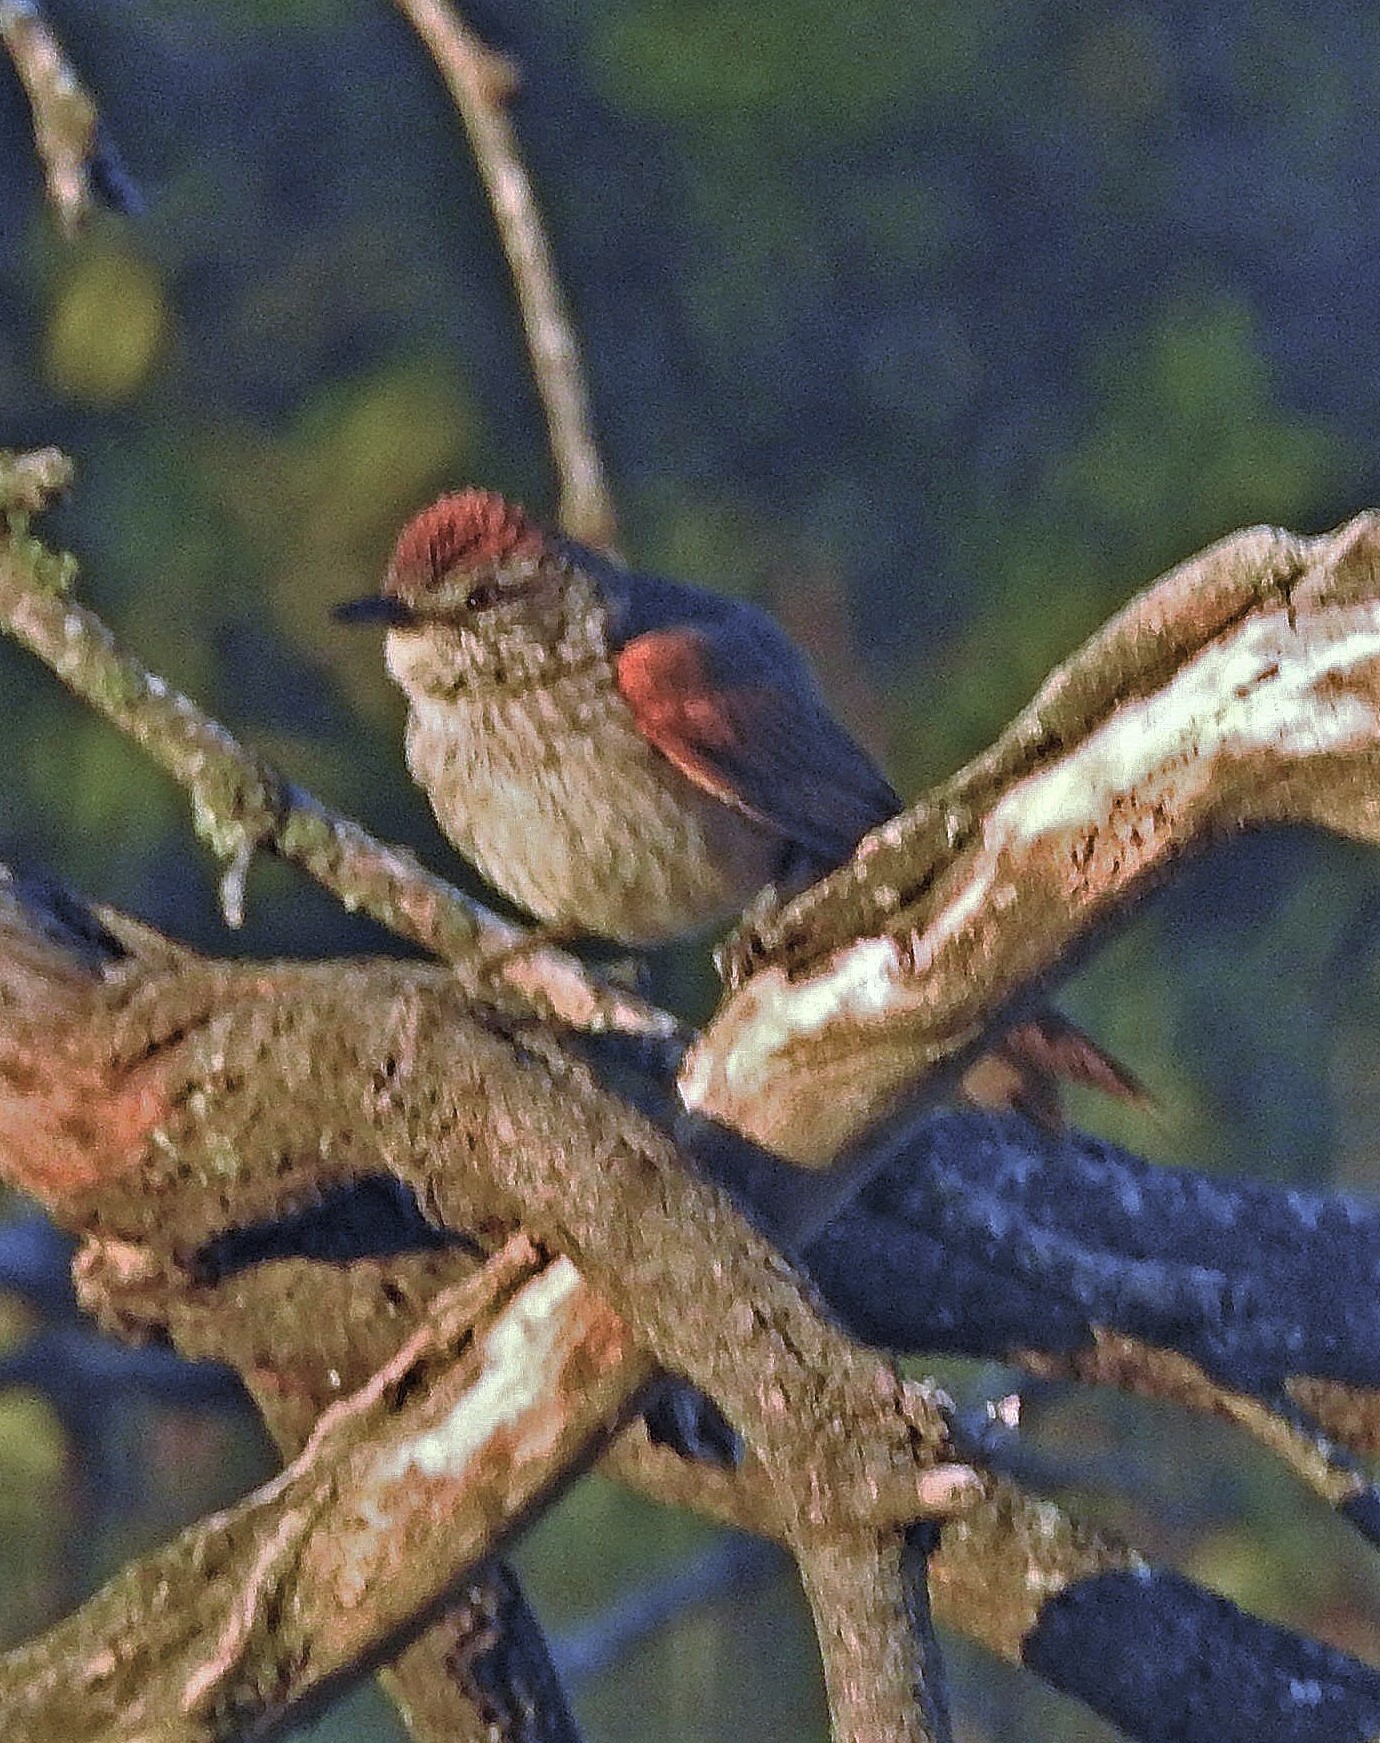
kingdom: Animalia
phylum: Chordata
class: Aves
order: Passeriformes
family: Furnariidae
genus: Synallaxis
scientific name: Synallaxis albescens
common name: Pale-breasted spinetail
